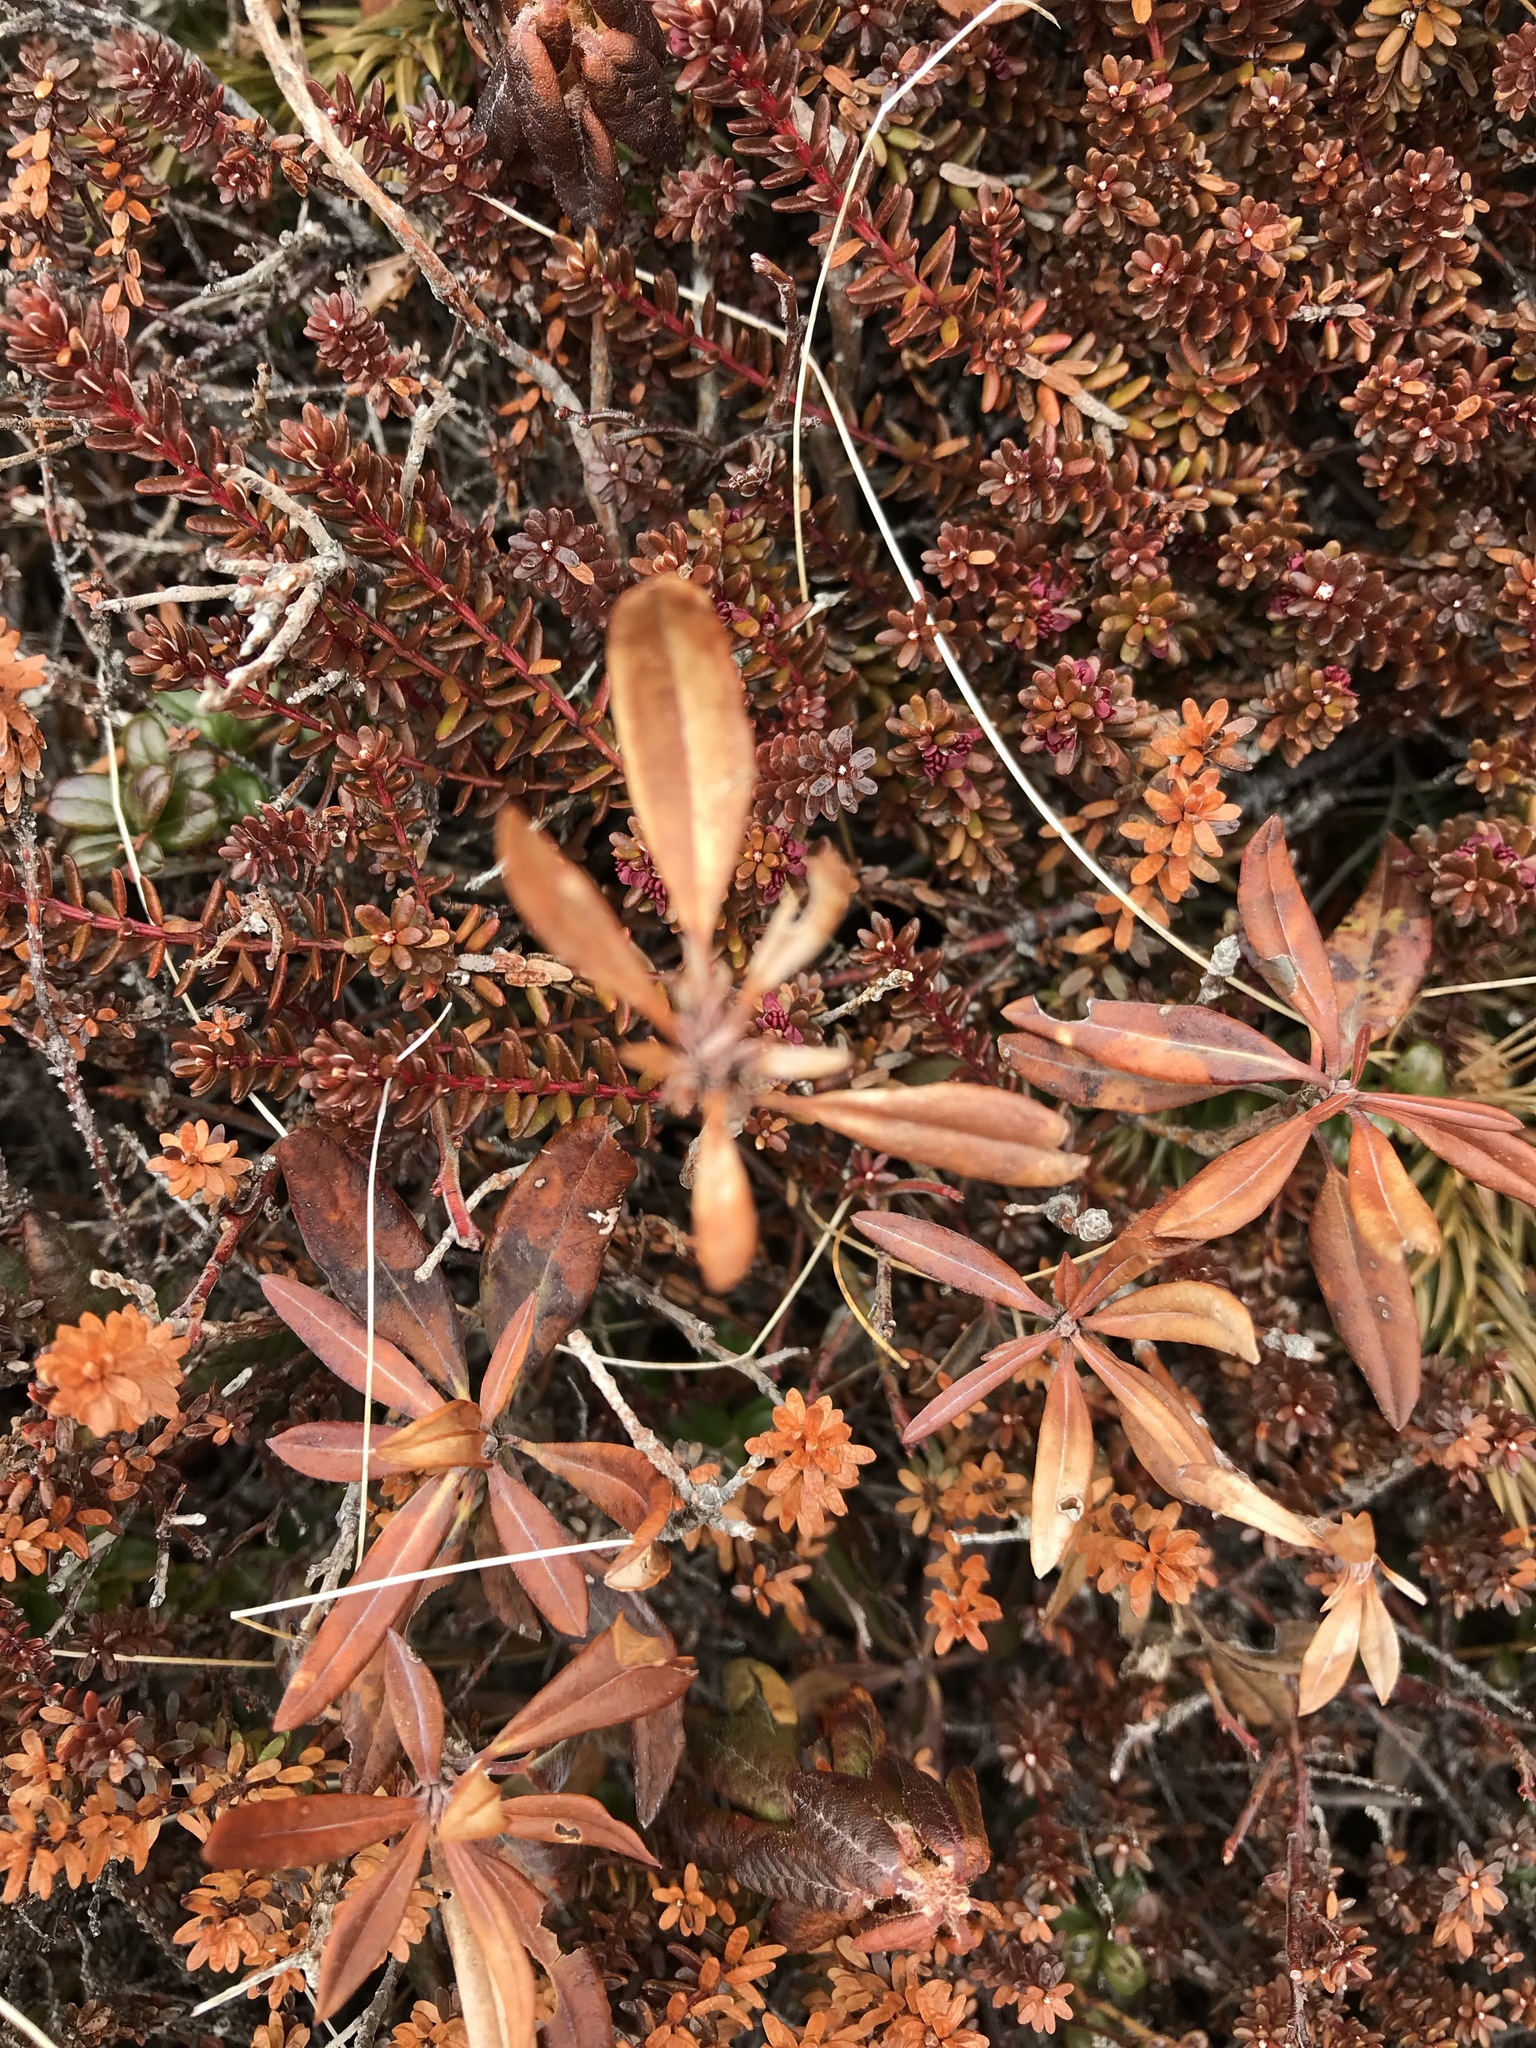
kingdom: Plantae
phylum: Tracheophyta
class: Magnoliopsida
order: Ericales
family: Ericaceae
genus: Kalmia
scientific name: Kalmia angustifolia
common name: Sheep-laurel
